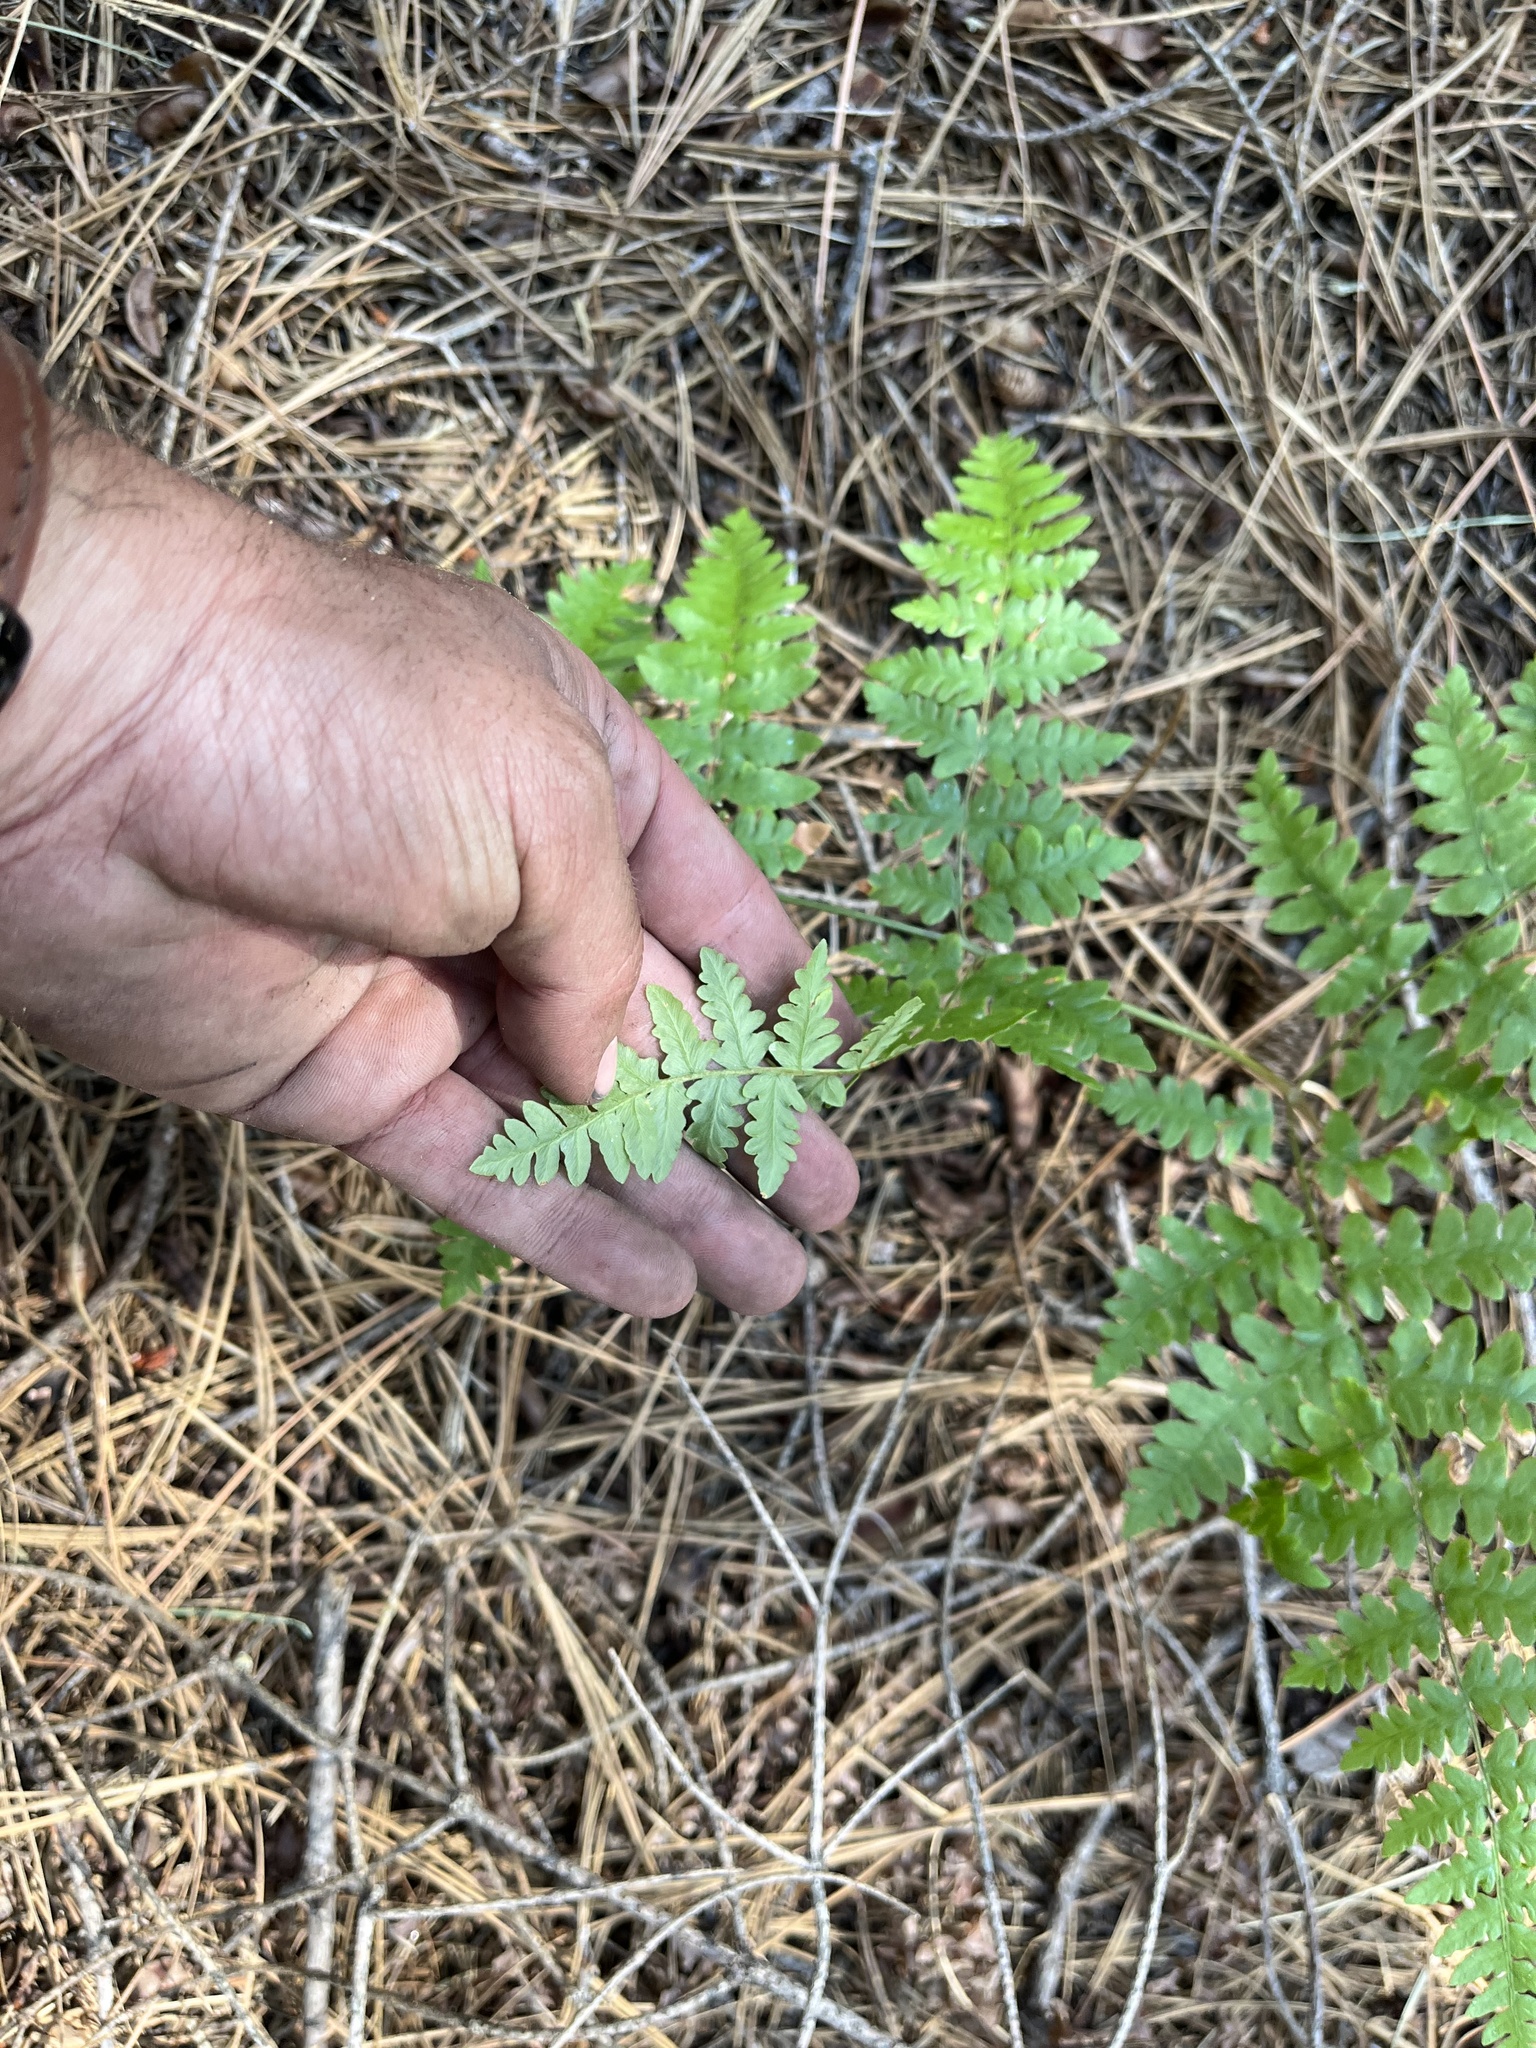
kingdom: Plantae
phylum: Tracheophyta
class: Polypodiopsida
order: Polypodiales
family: Dennstaedtiaceae
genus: Pteridium
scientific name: Pteridium aquilinum
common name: Bracken
